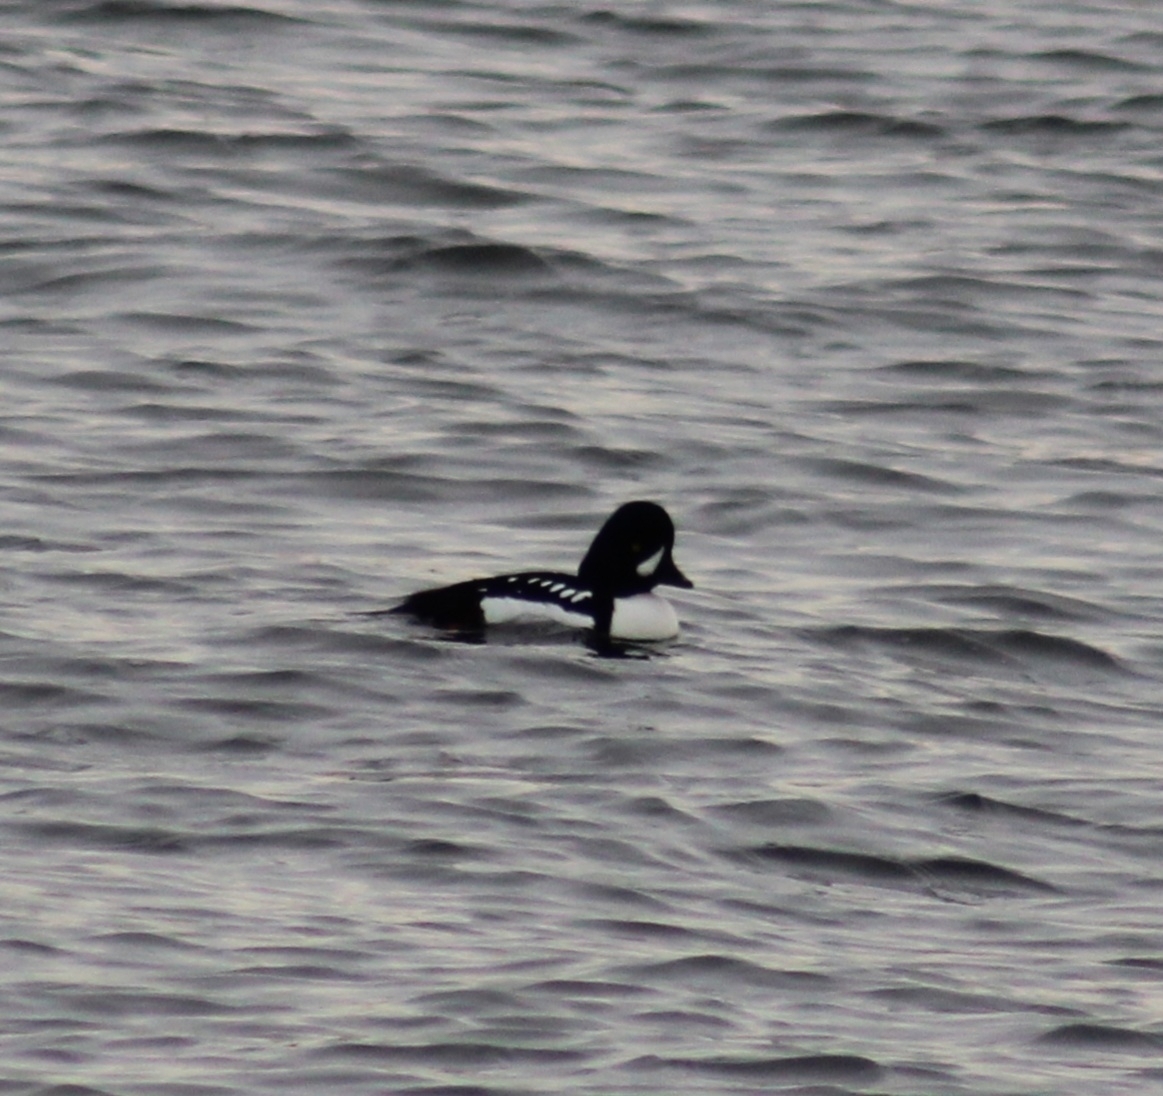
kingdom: Animalia
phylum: Chordata
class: Aves
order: Anseriformes
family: Anatidae
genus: Bucephala
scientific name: Bucephala islandica
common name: Barrow's goldeneye
